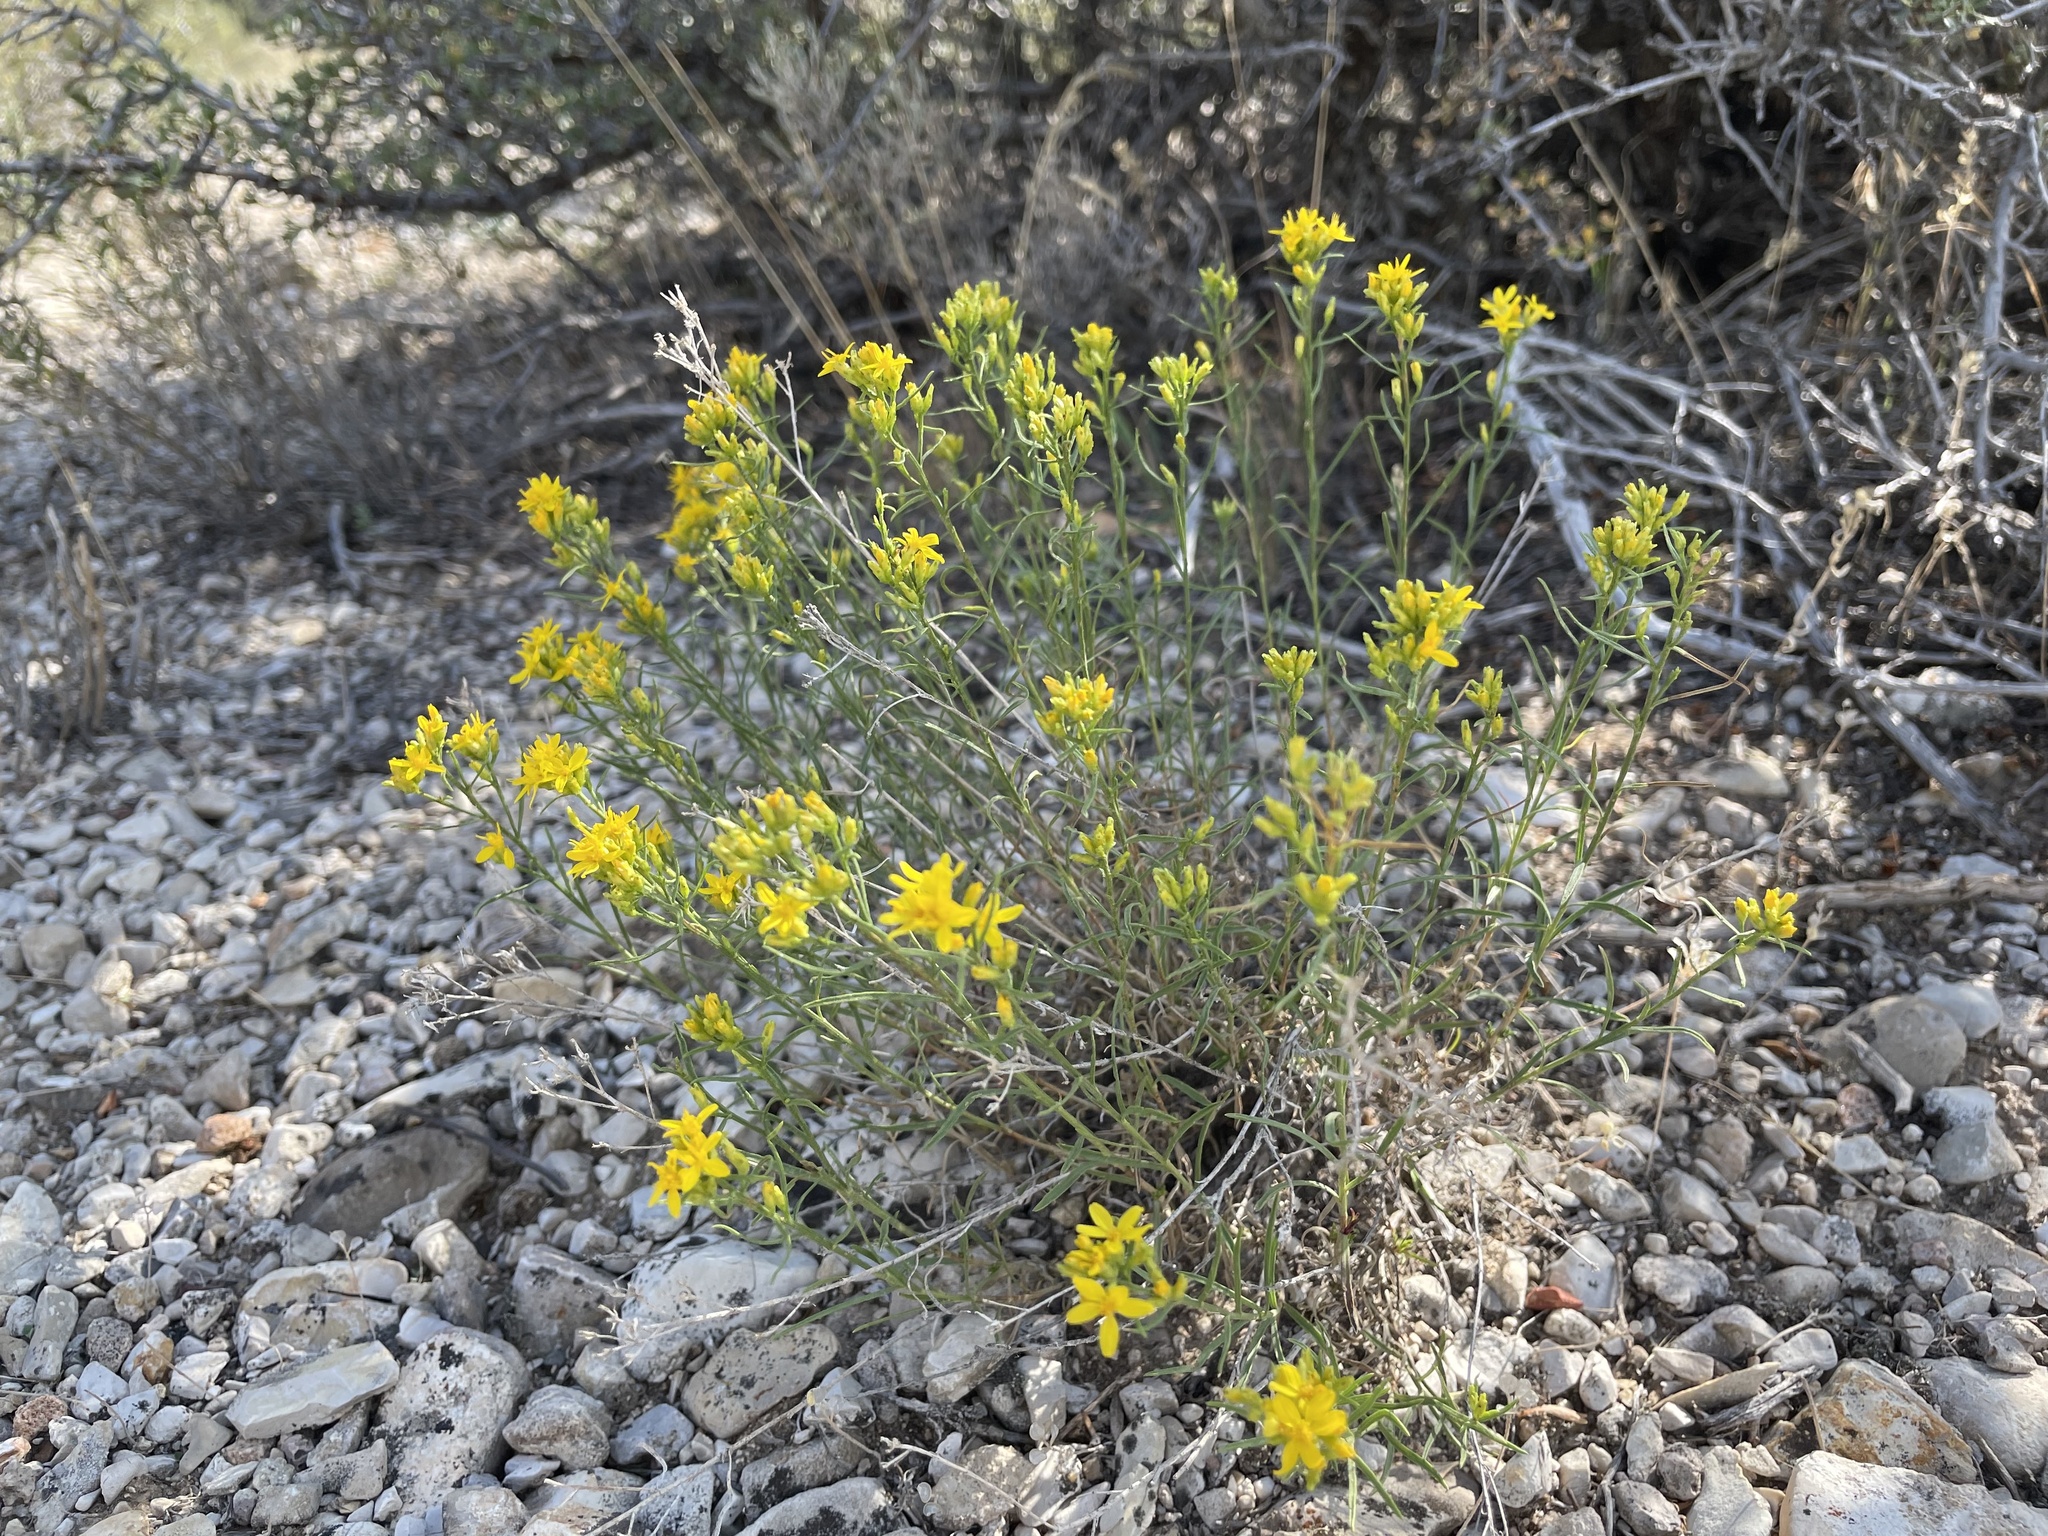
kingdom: Plantae
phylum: Tracheophyta
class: Magnoliopsida
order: Asterales
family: Asteraceae
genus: Gutierrezia
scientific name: Gutierrezia sarothrae
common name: Broom snakeweed
